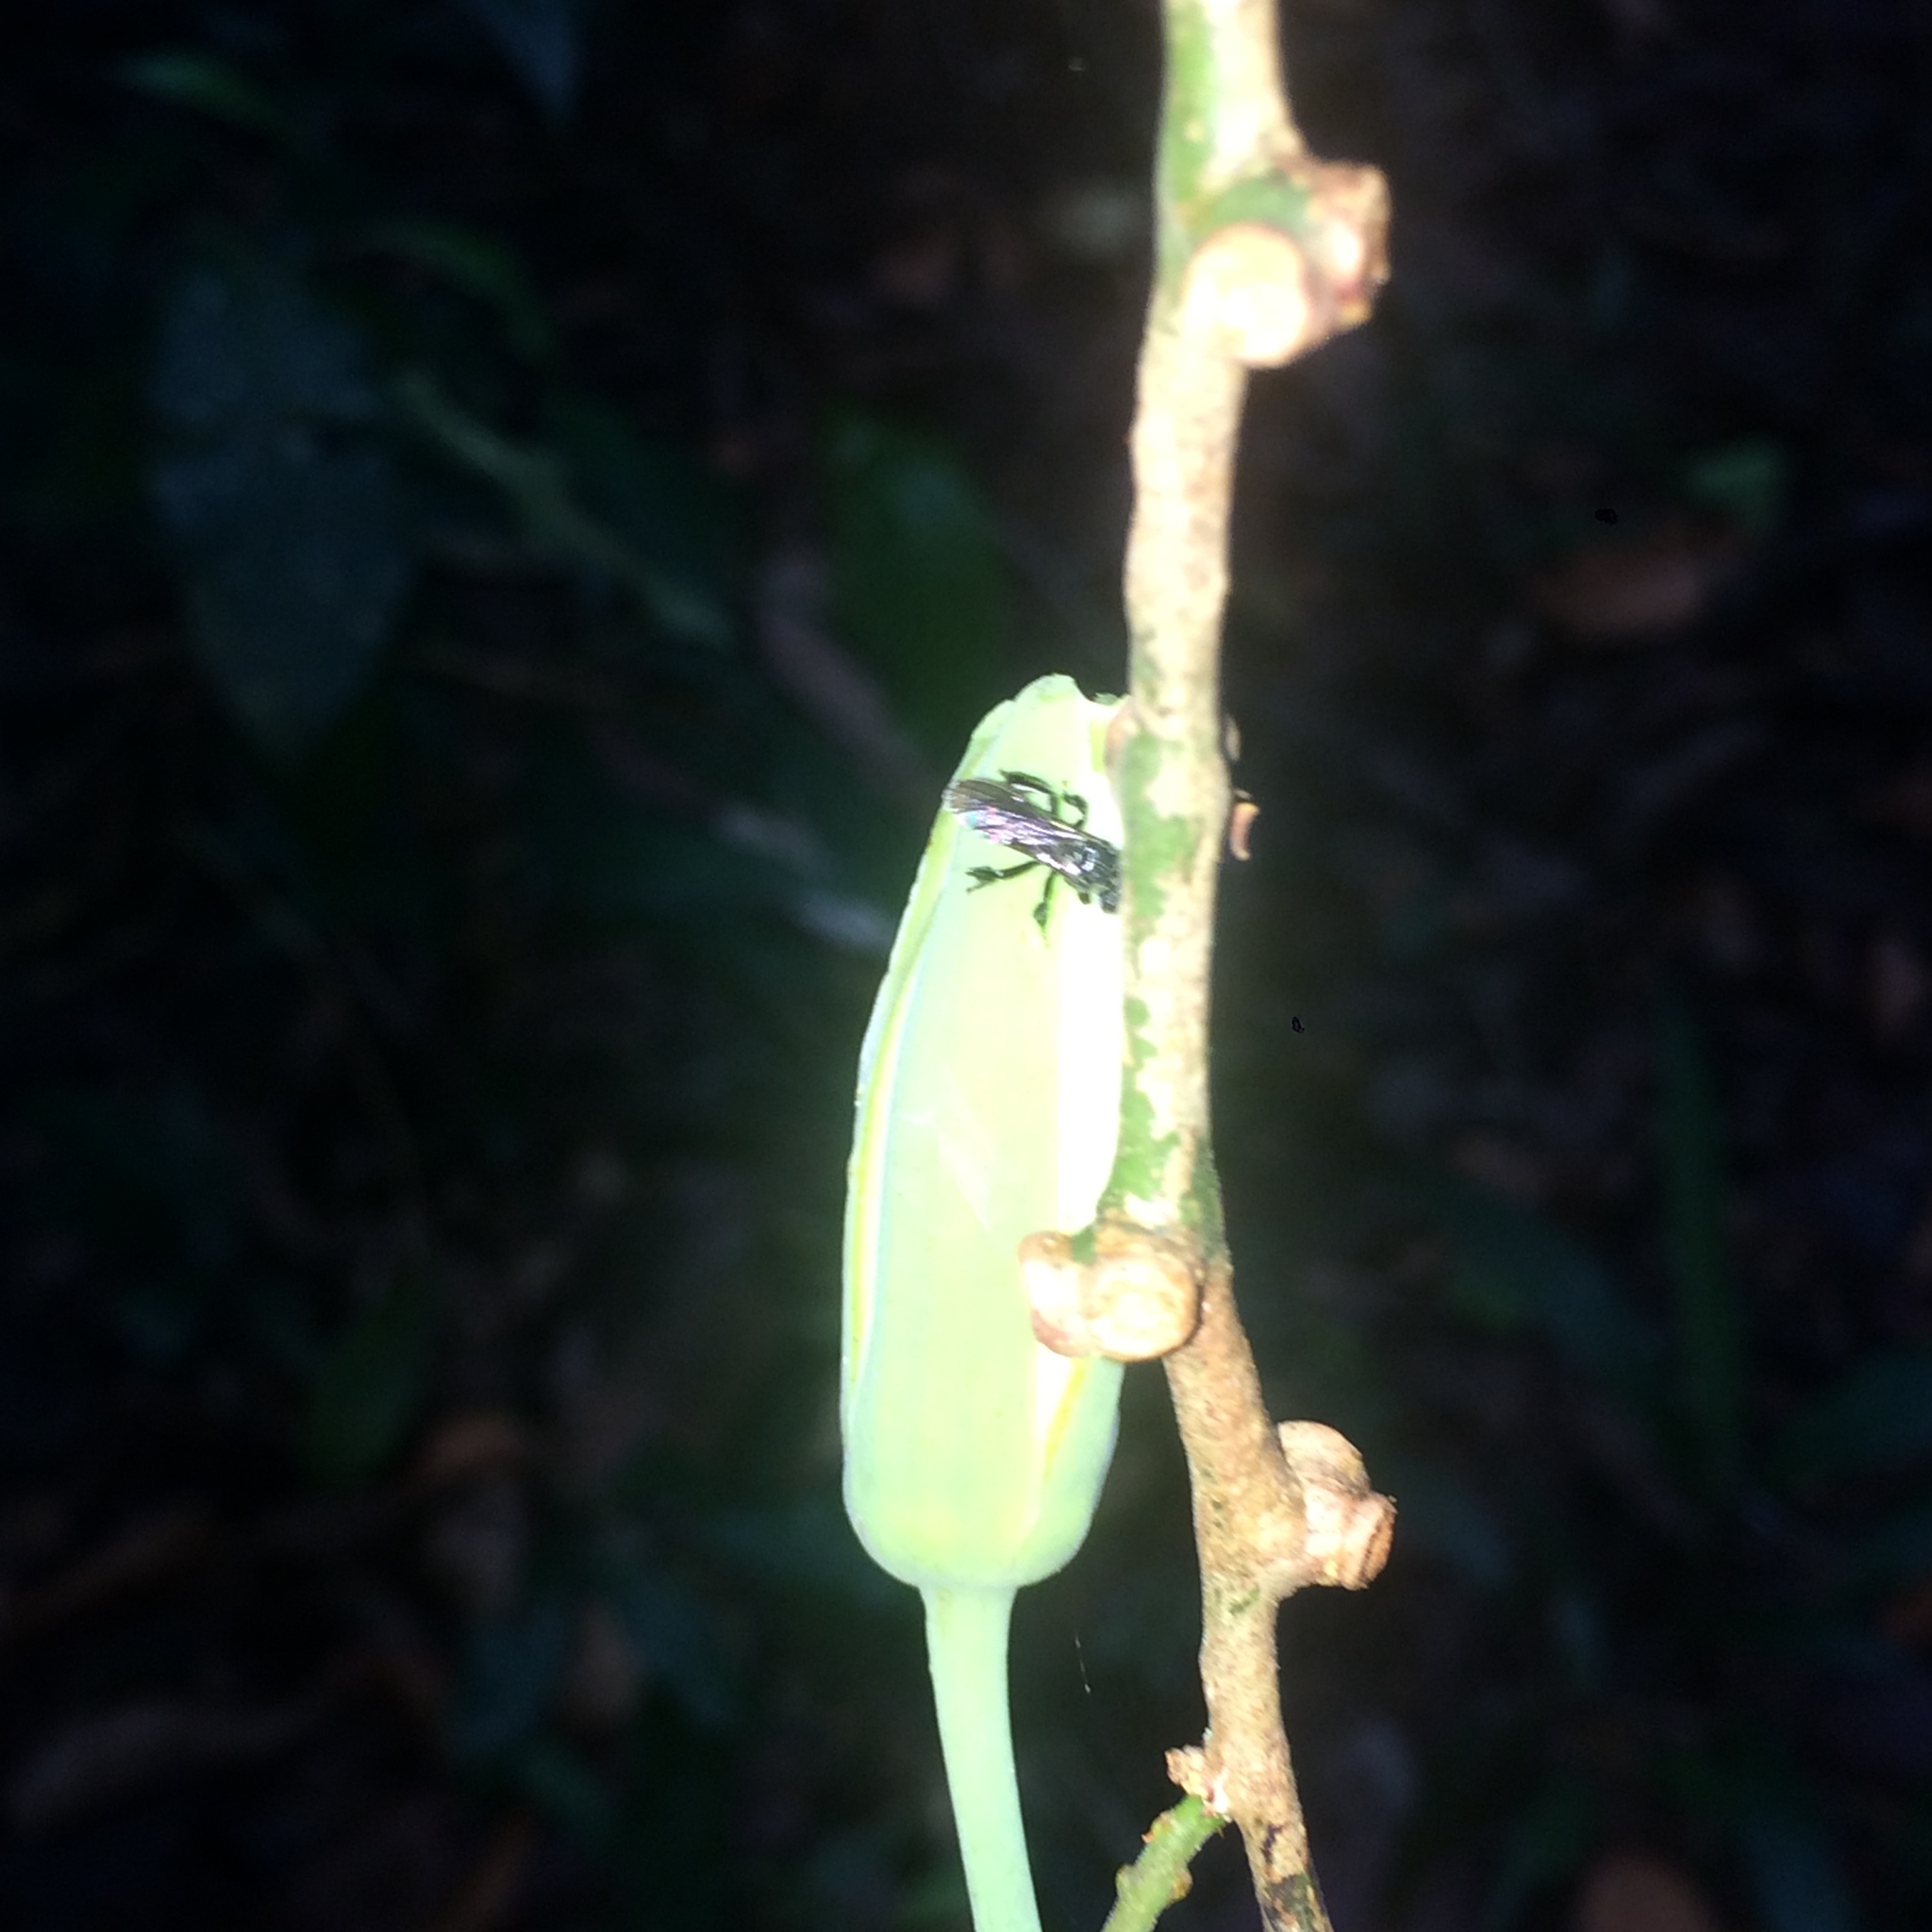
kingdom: Plantae
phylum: Tracheophyta
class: Magnoliopsida
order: Malpighiales
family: Passifloraceae
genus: Passiflora
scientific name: Passiflora contracta
